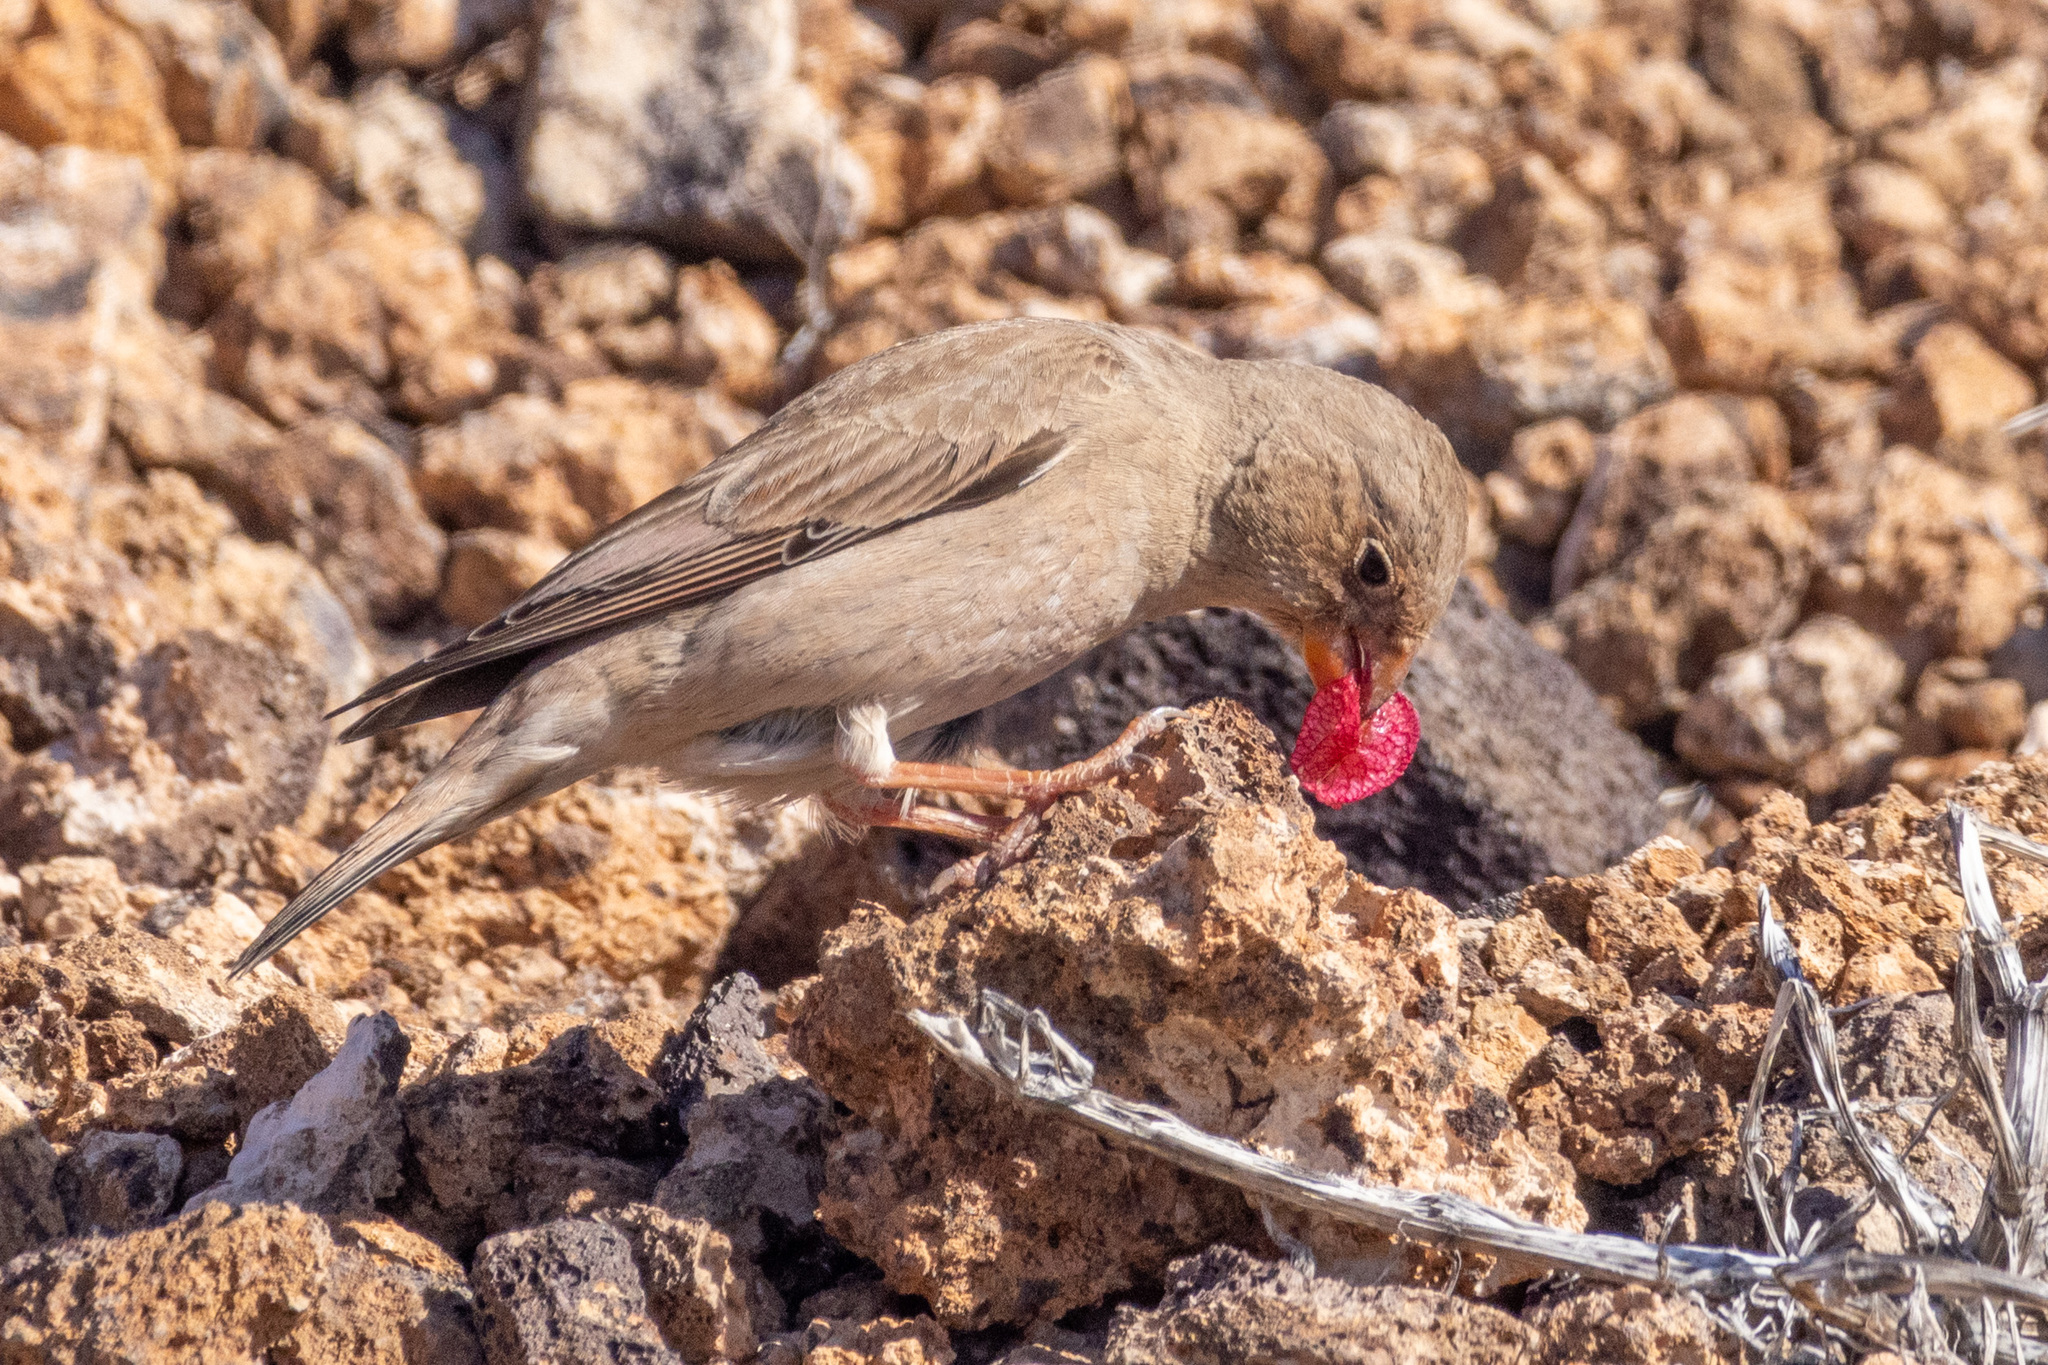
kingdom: Animalia
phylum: Chordata
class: Aves
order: Passeriformes
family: Fringillidae
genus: Bucanetes
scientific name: Bucanetes githagineus
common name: Trumpeter finch
